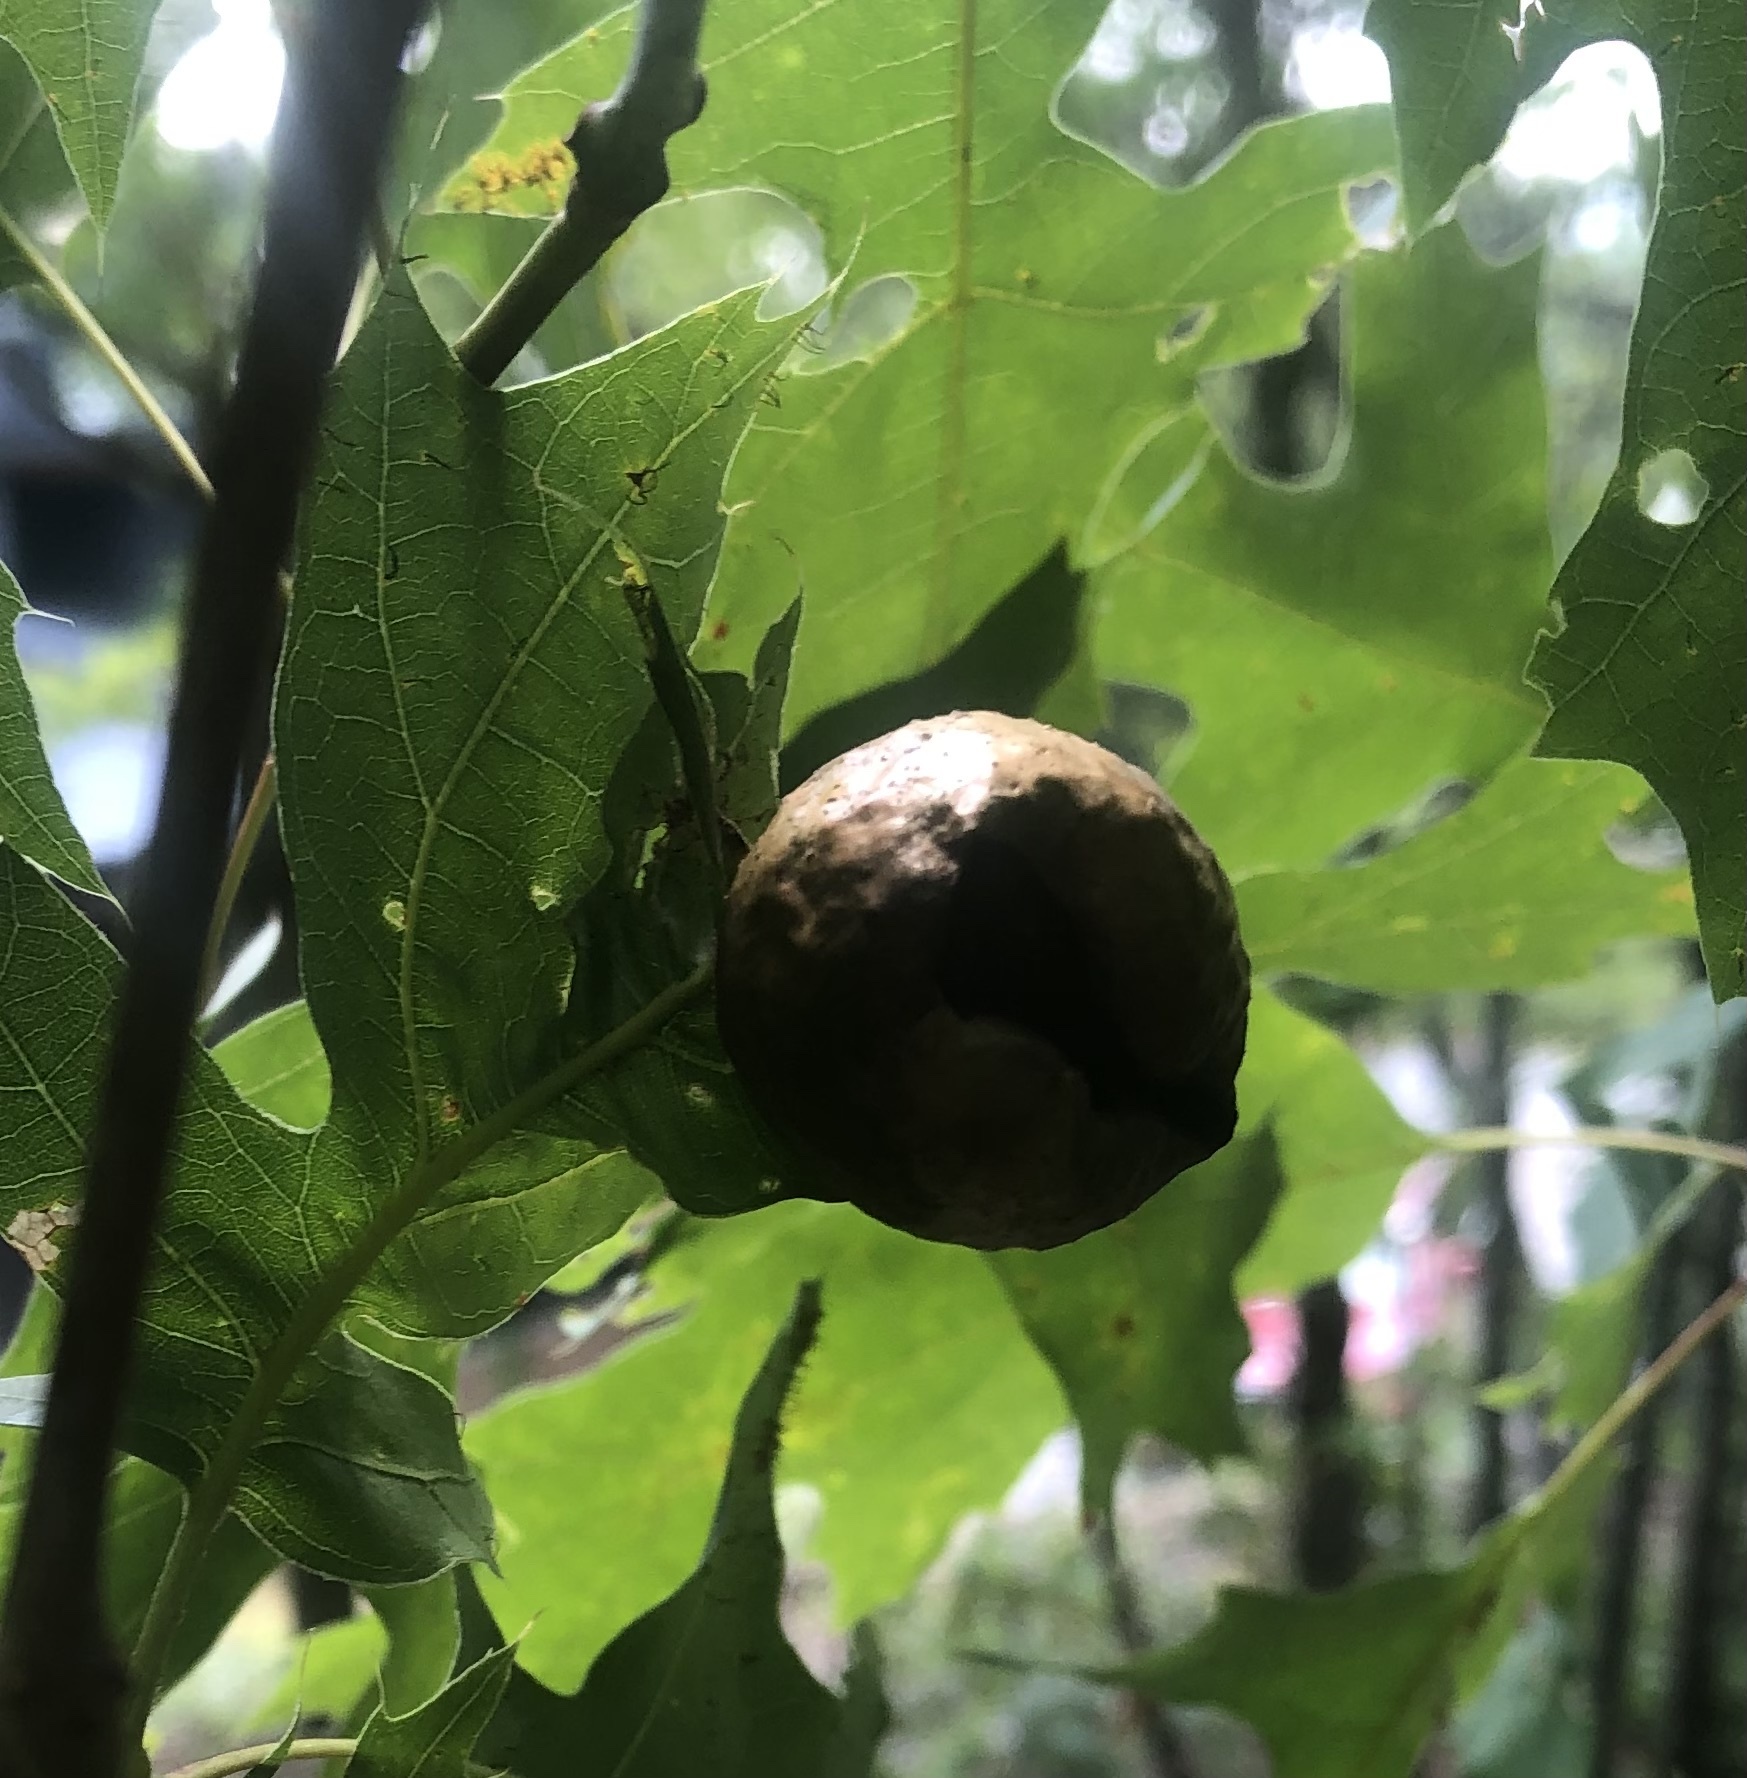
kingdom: Animalia
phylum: Arthropoda
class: Insecta
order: Hymenoptera
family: Cynipidae
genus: Amphibolips
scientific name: Amphibolips
